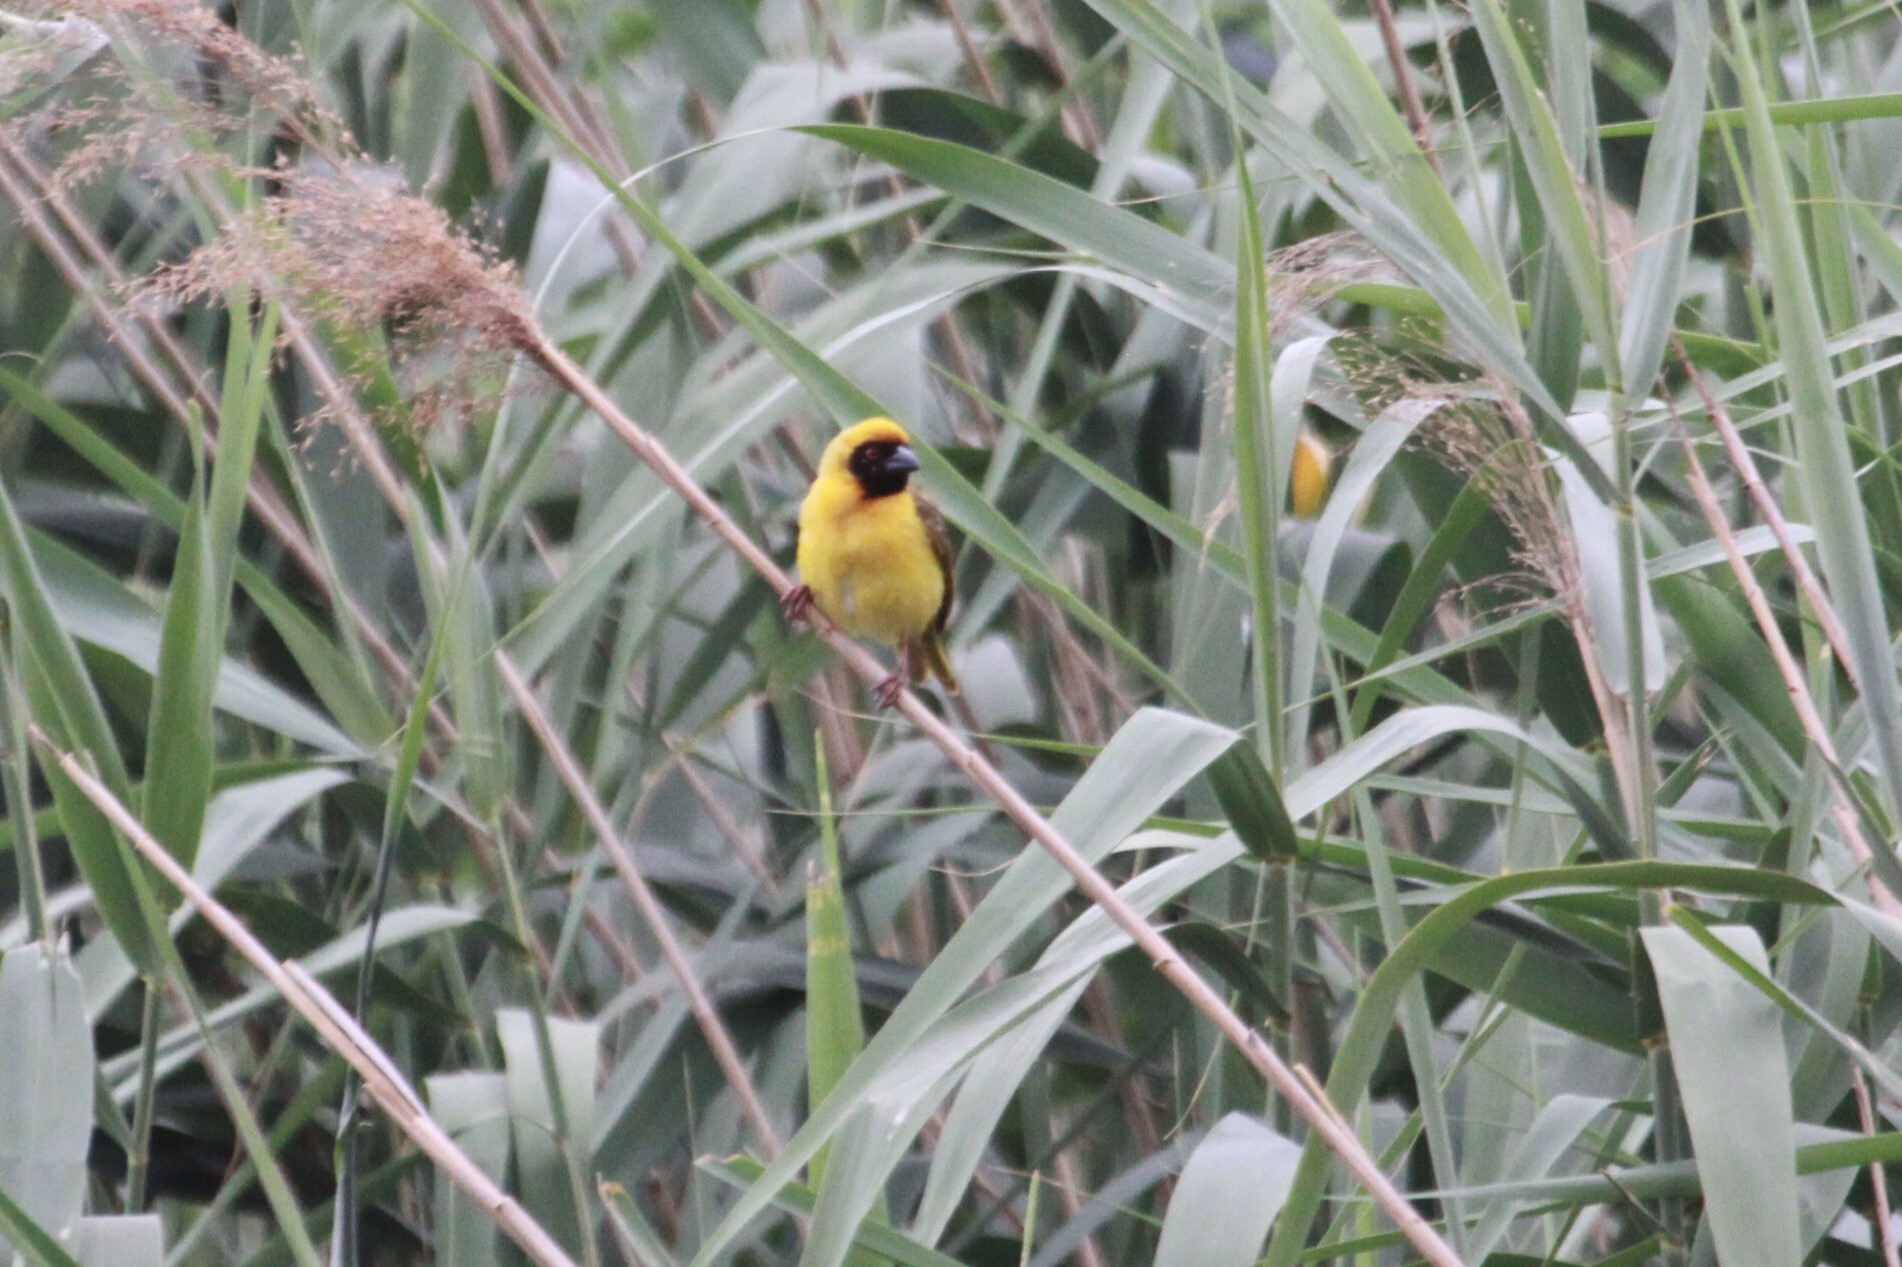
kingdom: Animalia
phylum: Chordata
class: Aves
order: Passeriformes
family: Ploceidae
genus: Ploceus
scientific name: Ploceus velatus
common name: Southern masked weaver
